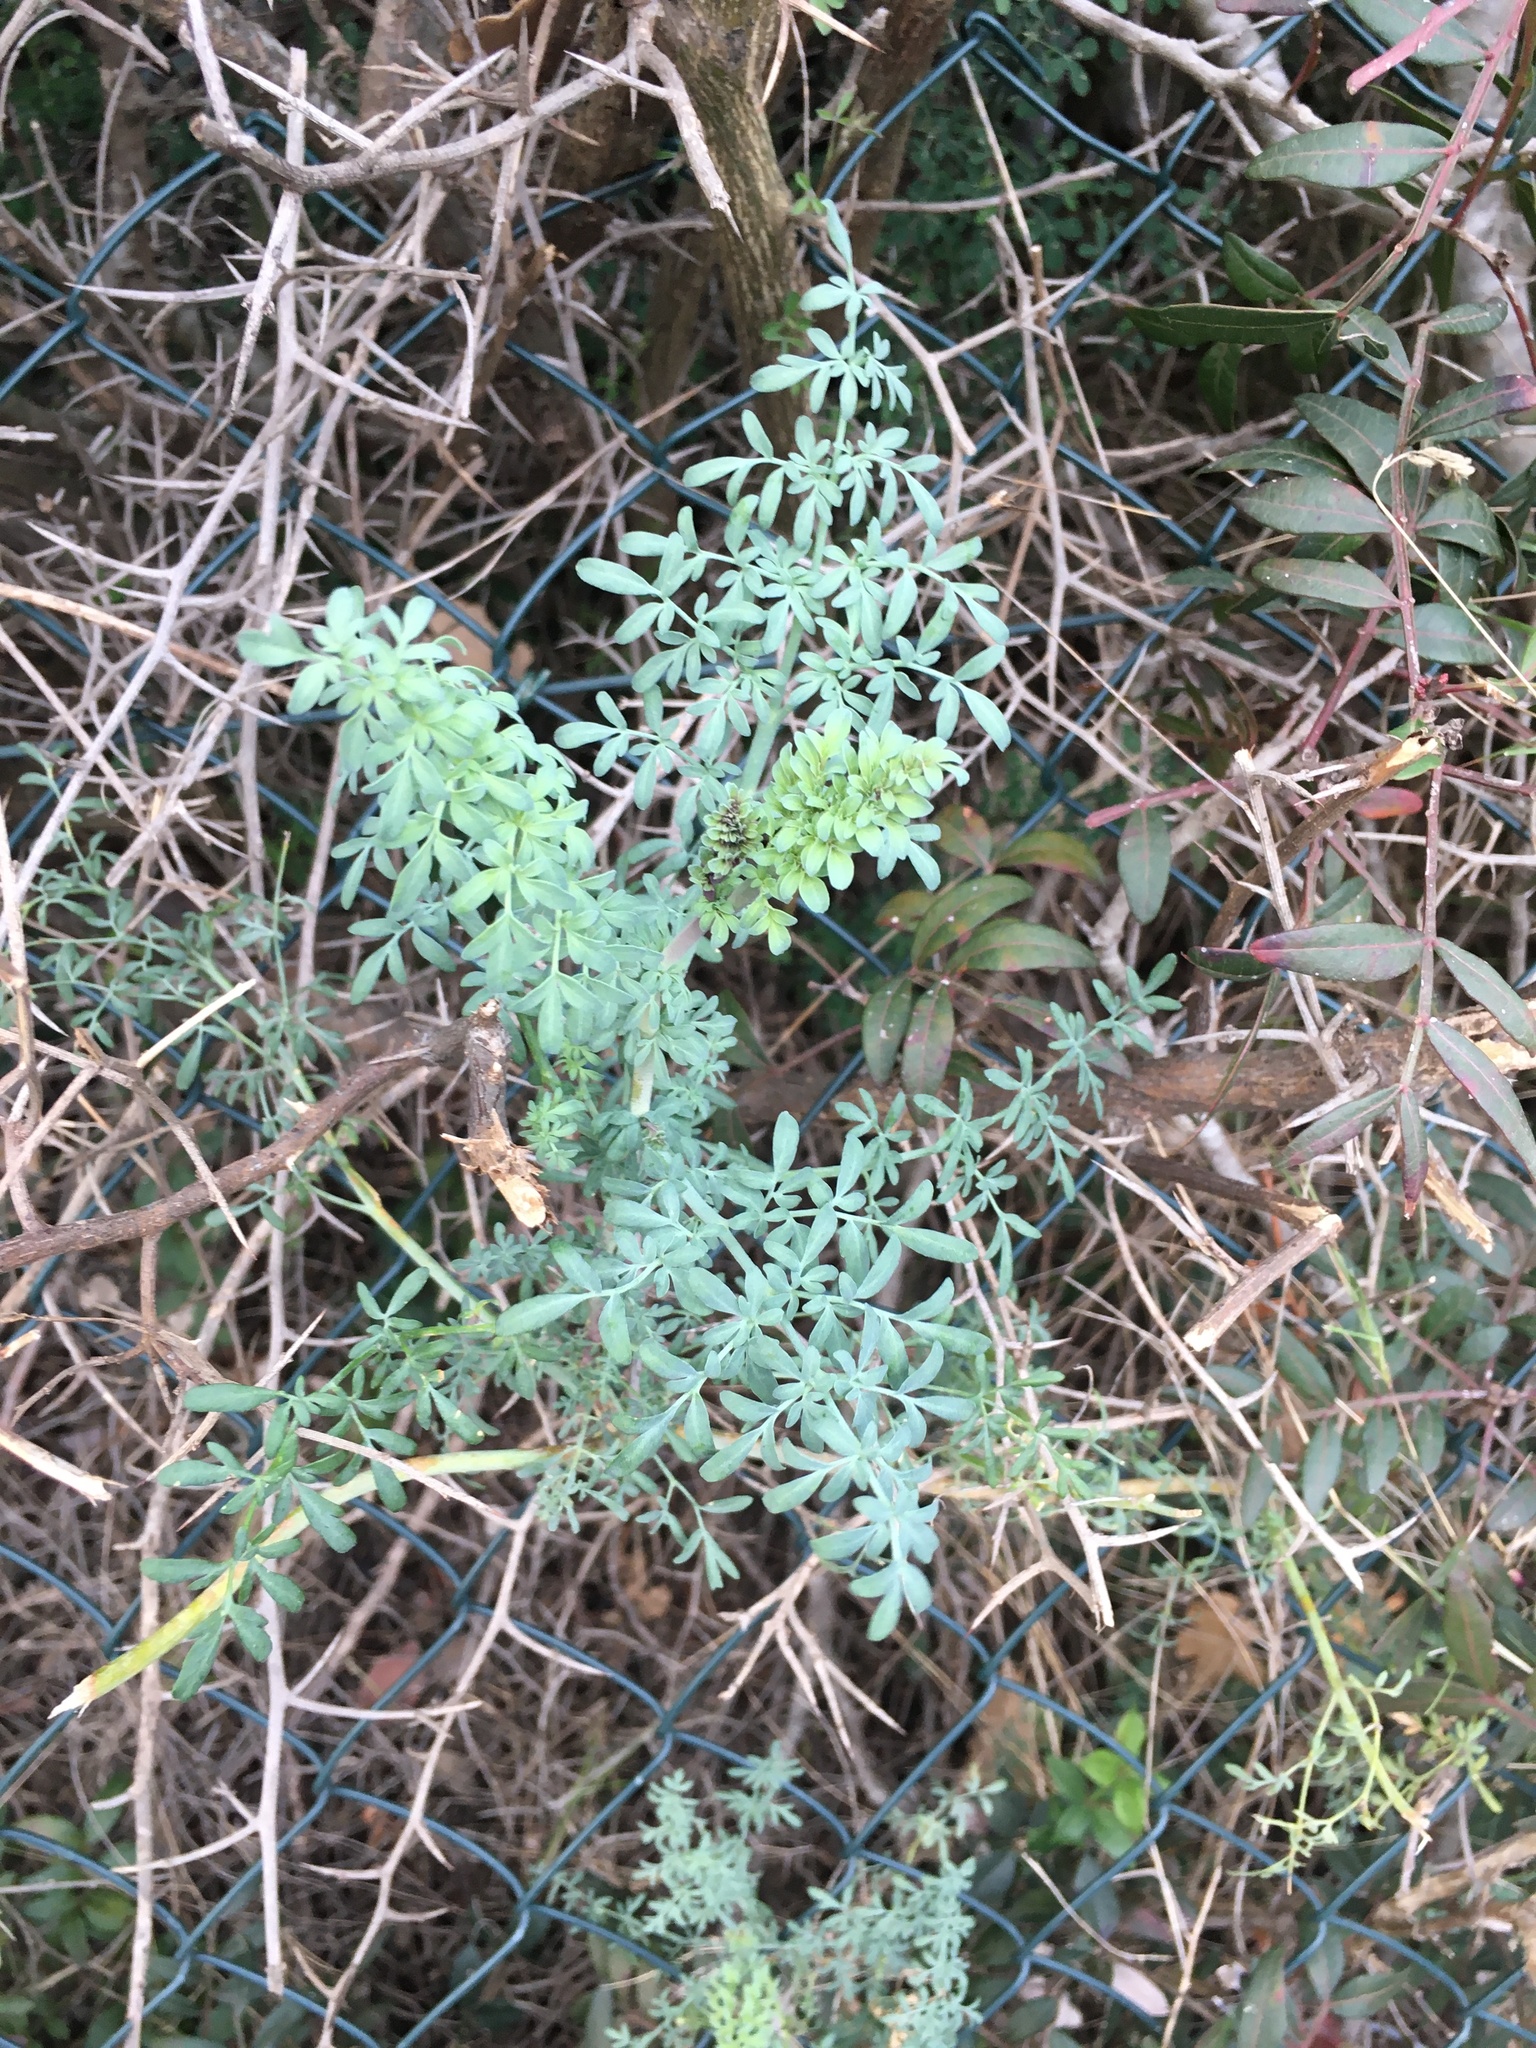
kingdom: Plantae
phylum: Tracheophyta
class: Magnoliopsida
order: Sapindales
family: Rutaceae
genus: Ruta
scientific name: Ruta angustifolia
